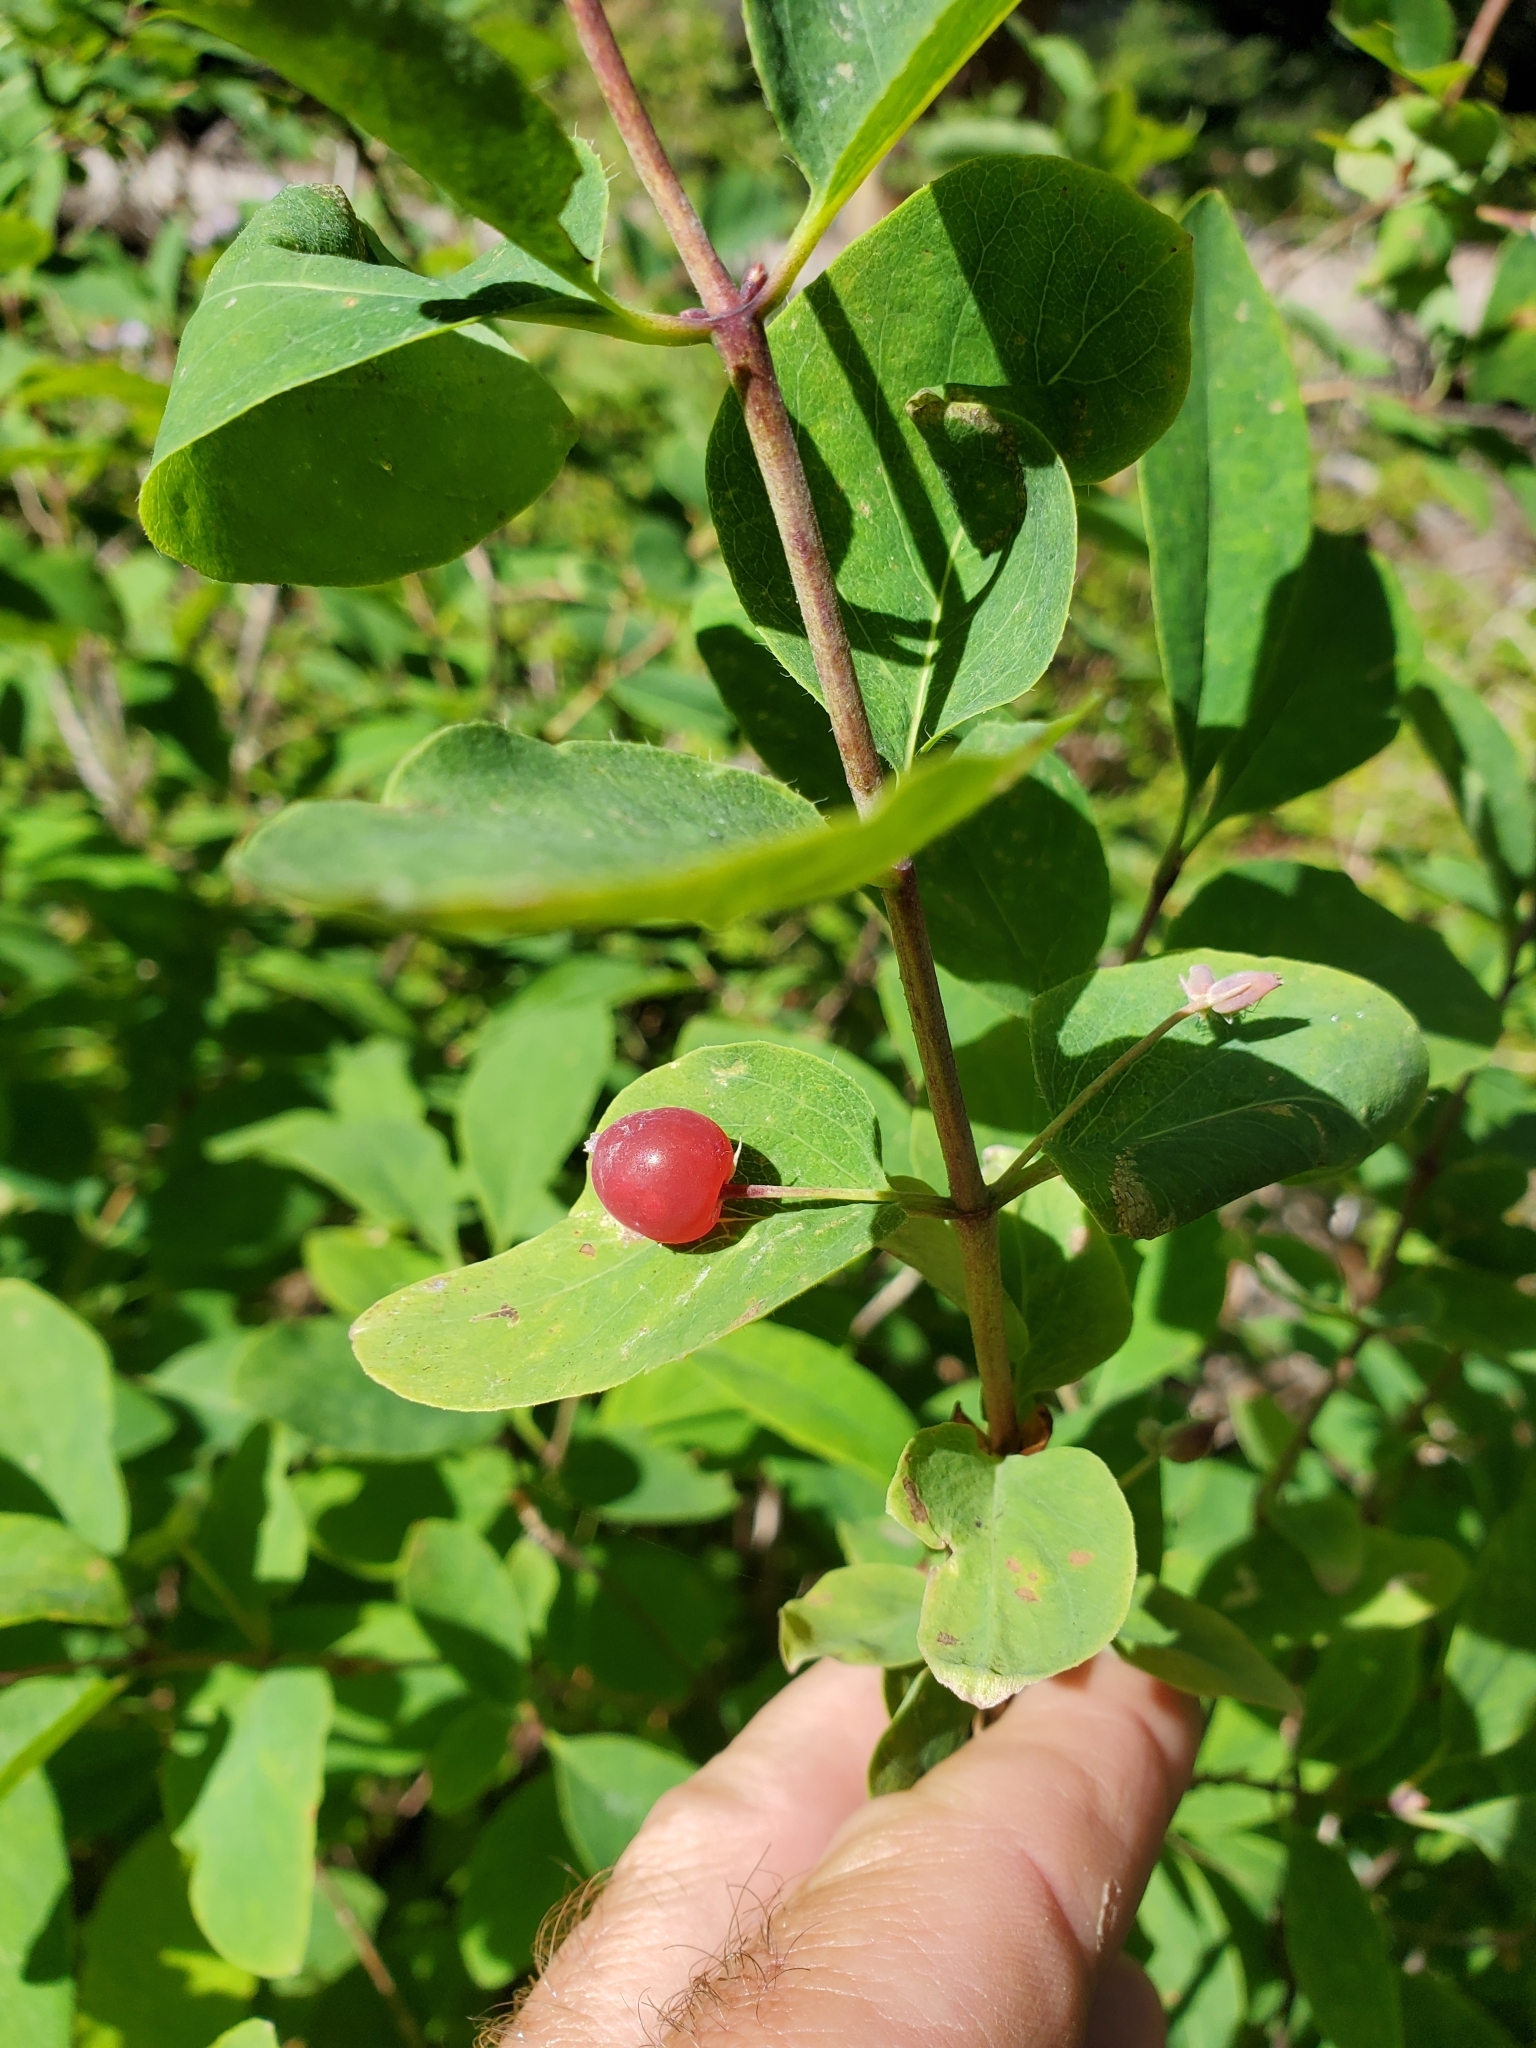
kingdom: Plantae
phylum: Tracheophyta
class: Magnoliopsida
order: Dipsacales
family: Caprifoliaceae
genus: Lonicera
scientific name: Lonicera utahensis
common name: Utah honeysuckle
